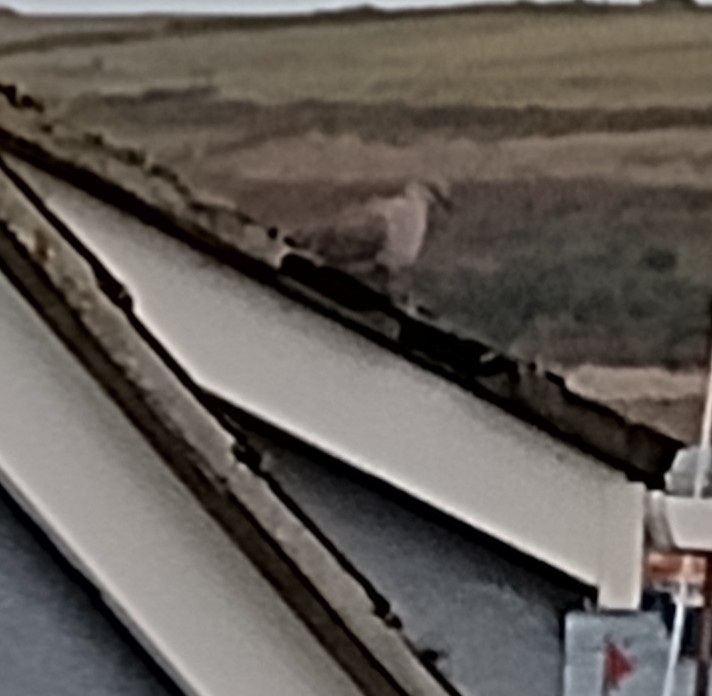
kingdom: Animalia
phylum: Chordata
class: Aves
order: Columbiformes
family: Columbidae
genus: Streptopelia
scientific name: Streptopelia decaocto
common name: Eurasian collared dove
